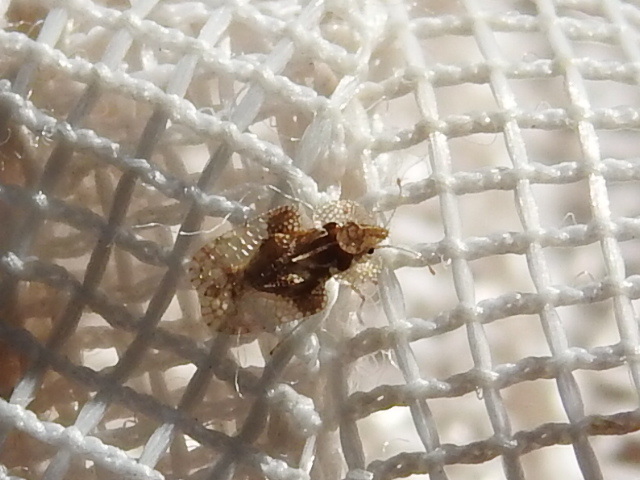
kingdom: Animalia
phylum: Arthropoda
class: Insecta
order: Hemiptera
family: Tingidae
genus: Corythucha
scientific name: Corythucha arcuata
